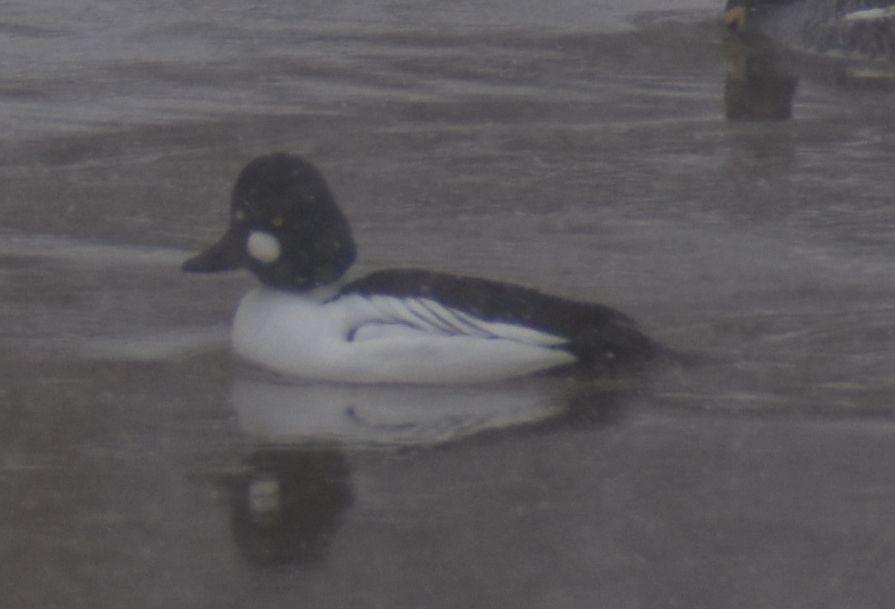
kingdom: Animalia
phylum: Chordata
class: Aves
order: Anseriformes
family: Anatidae
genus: Bucephala
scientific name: Bucephala clangula
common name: Common goldeneye
